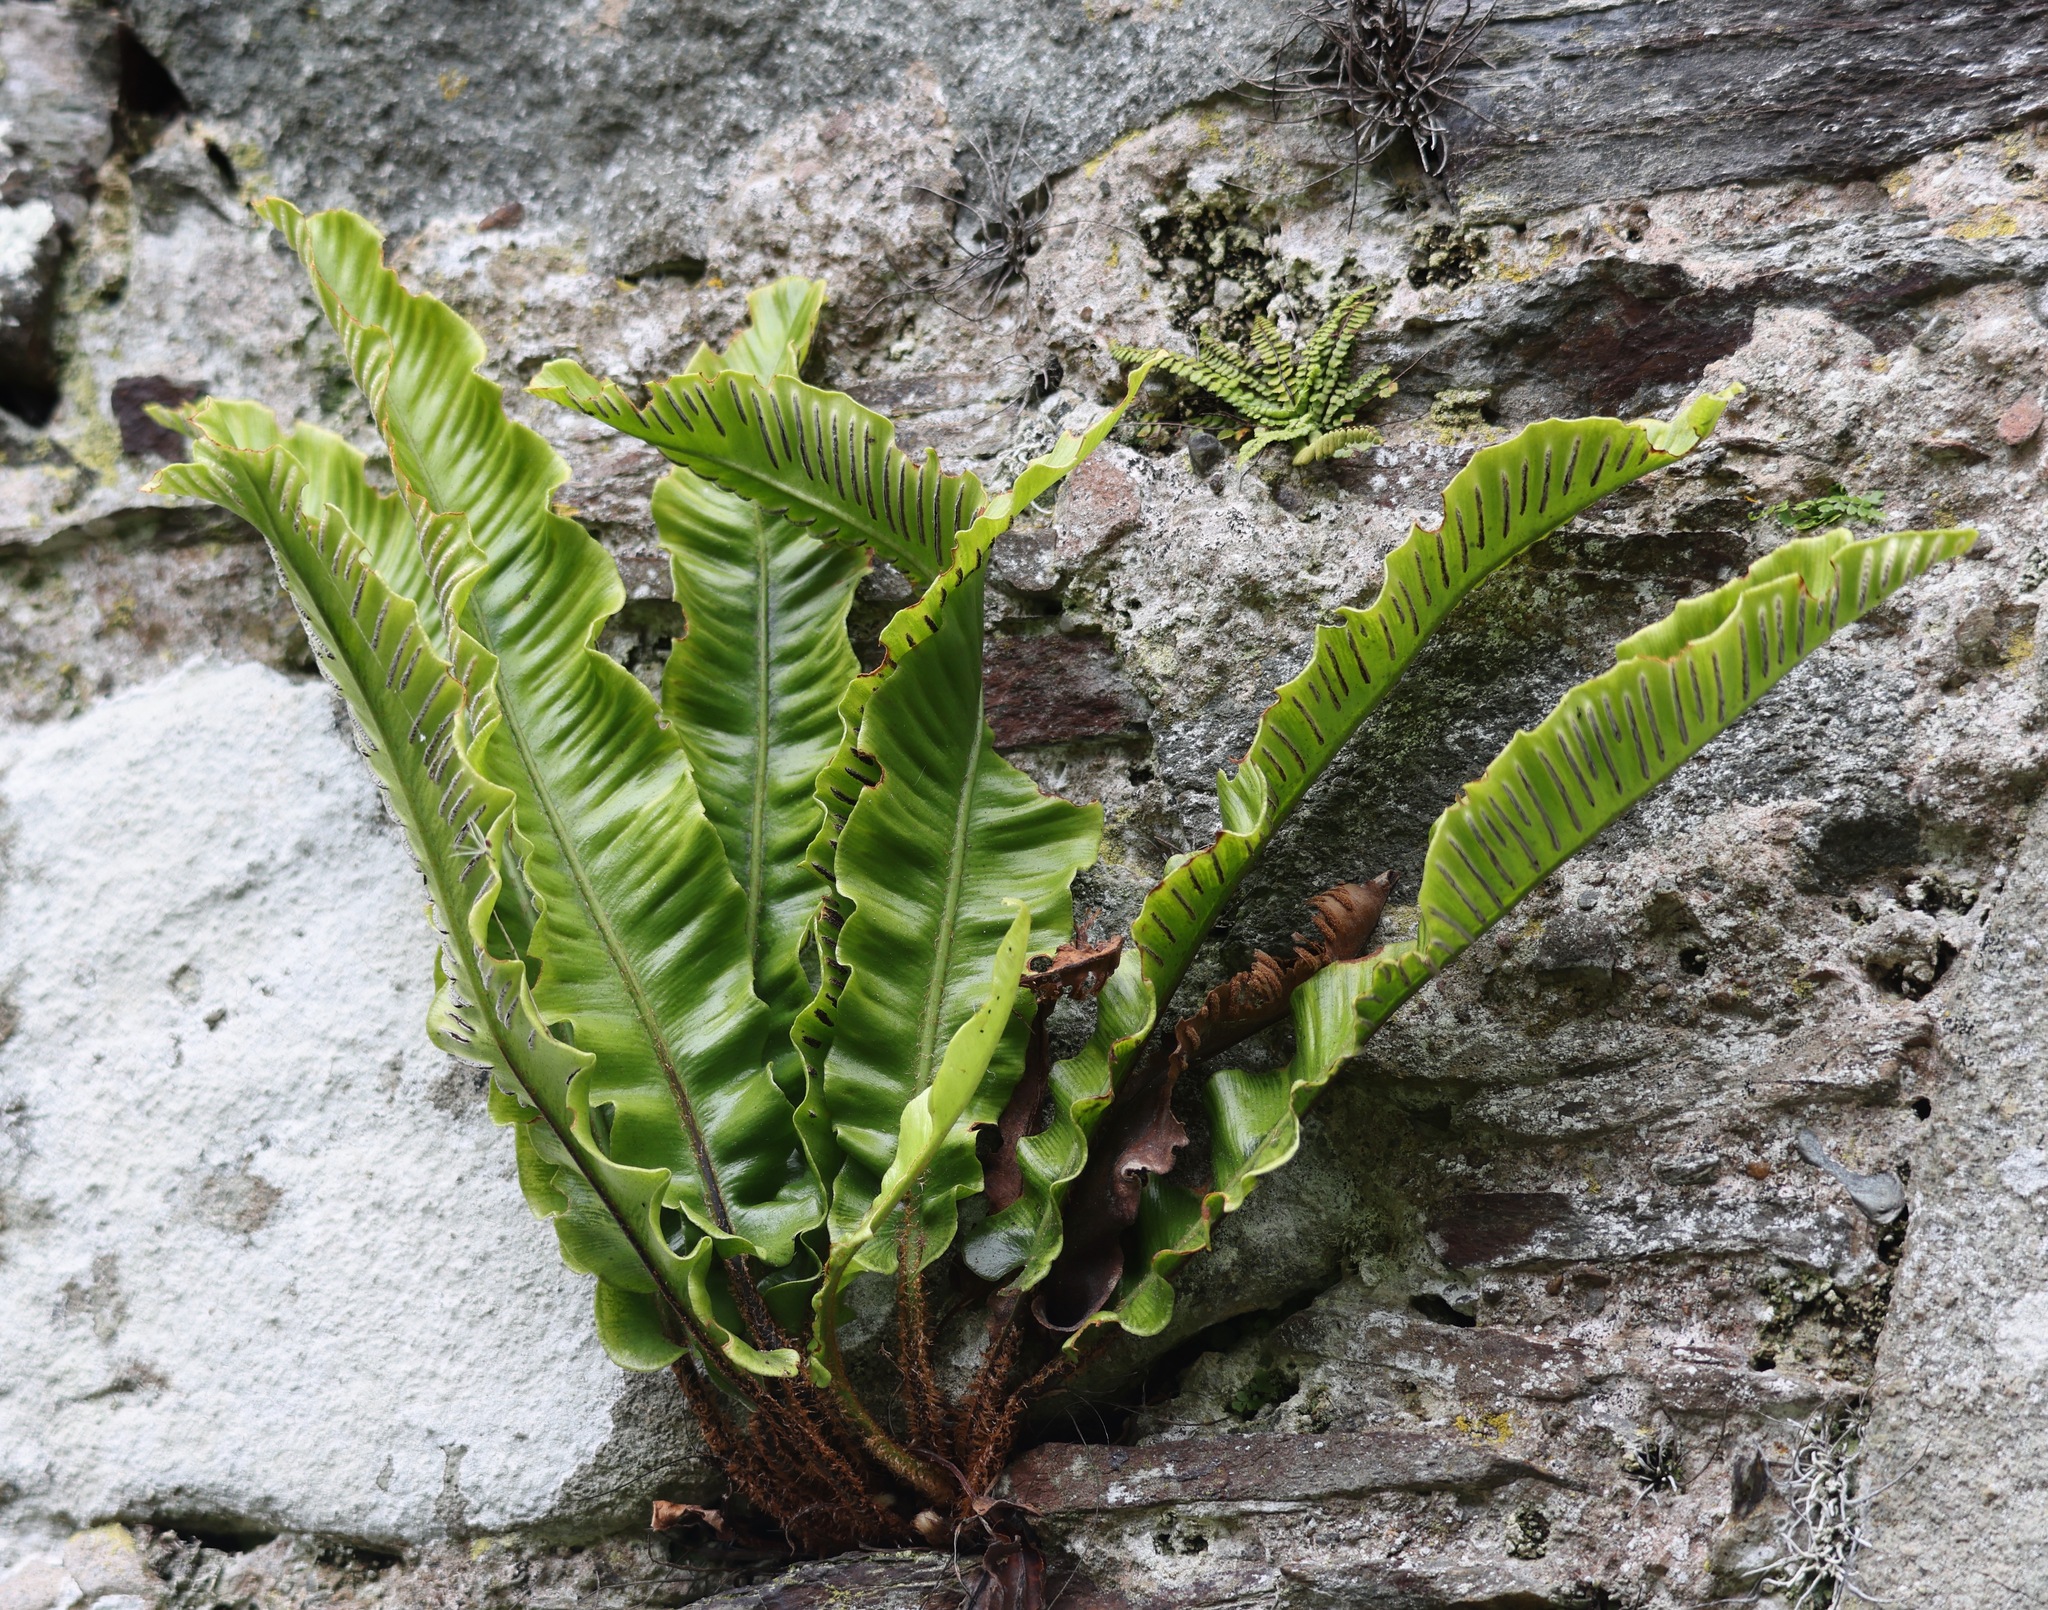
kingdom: Plantae
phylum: Tracheophyta
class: Polypodiopsida
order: Polypodiales
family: Aspleniaceae
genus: Asplenium
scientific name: Asplenium scolopendrium
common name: Hart's-tongue fern
